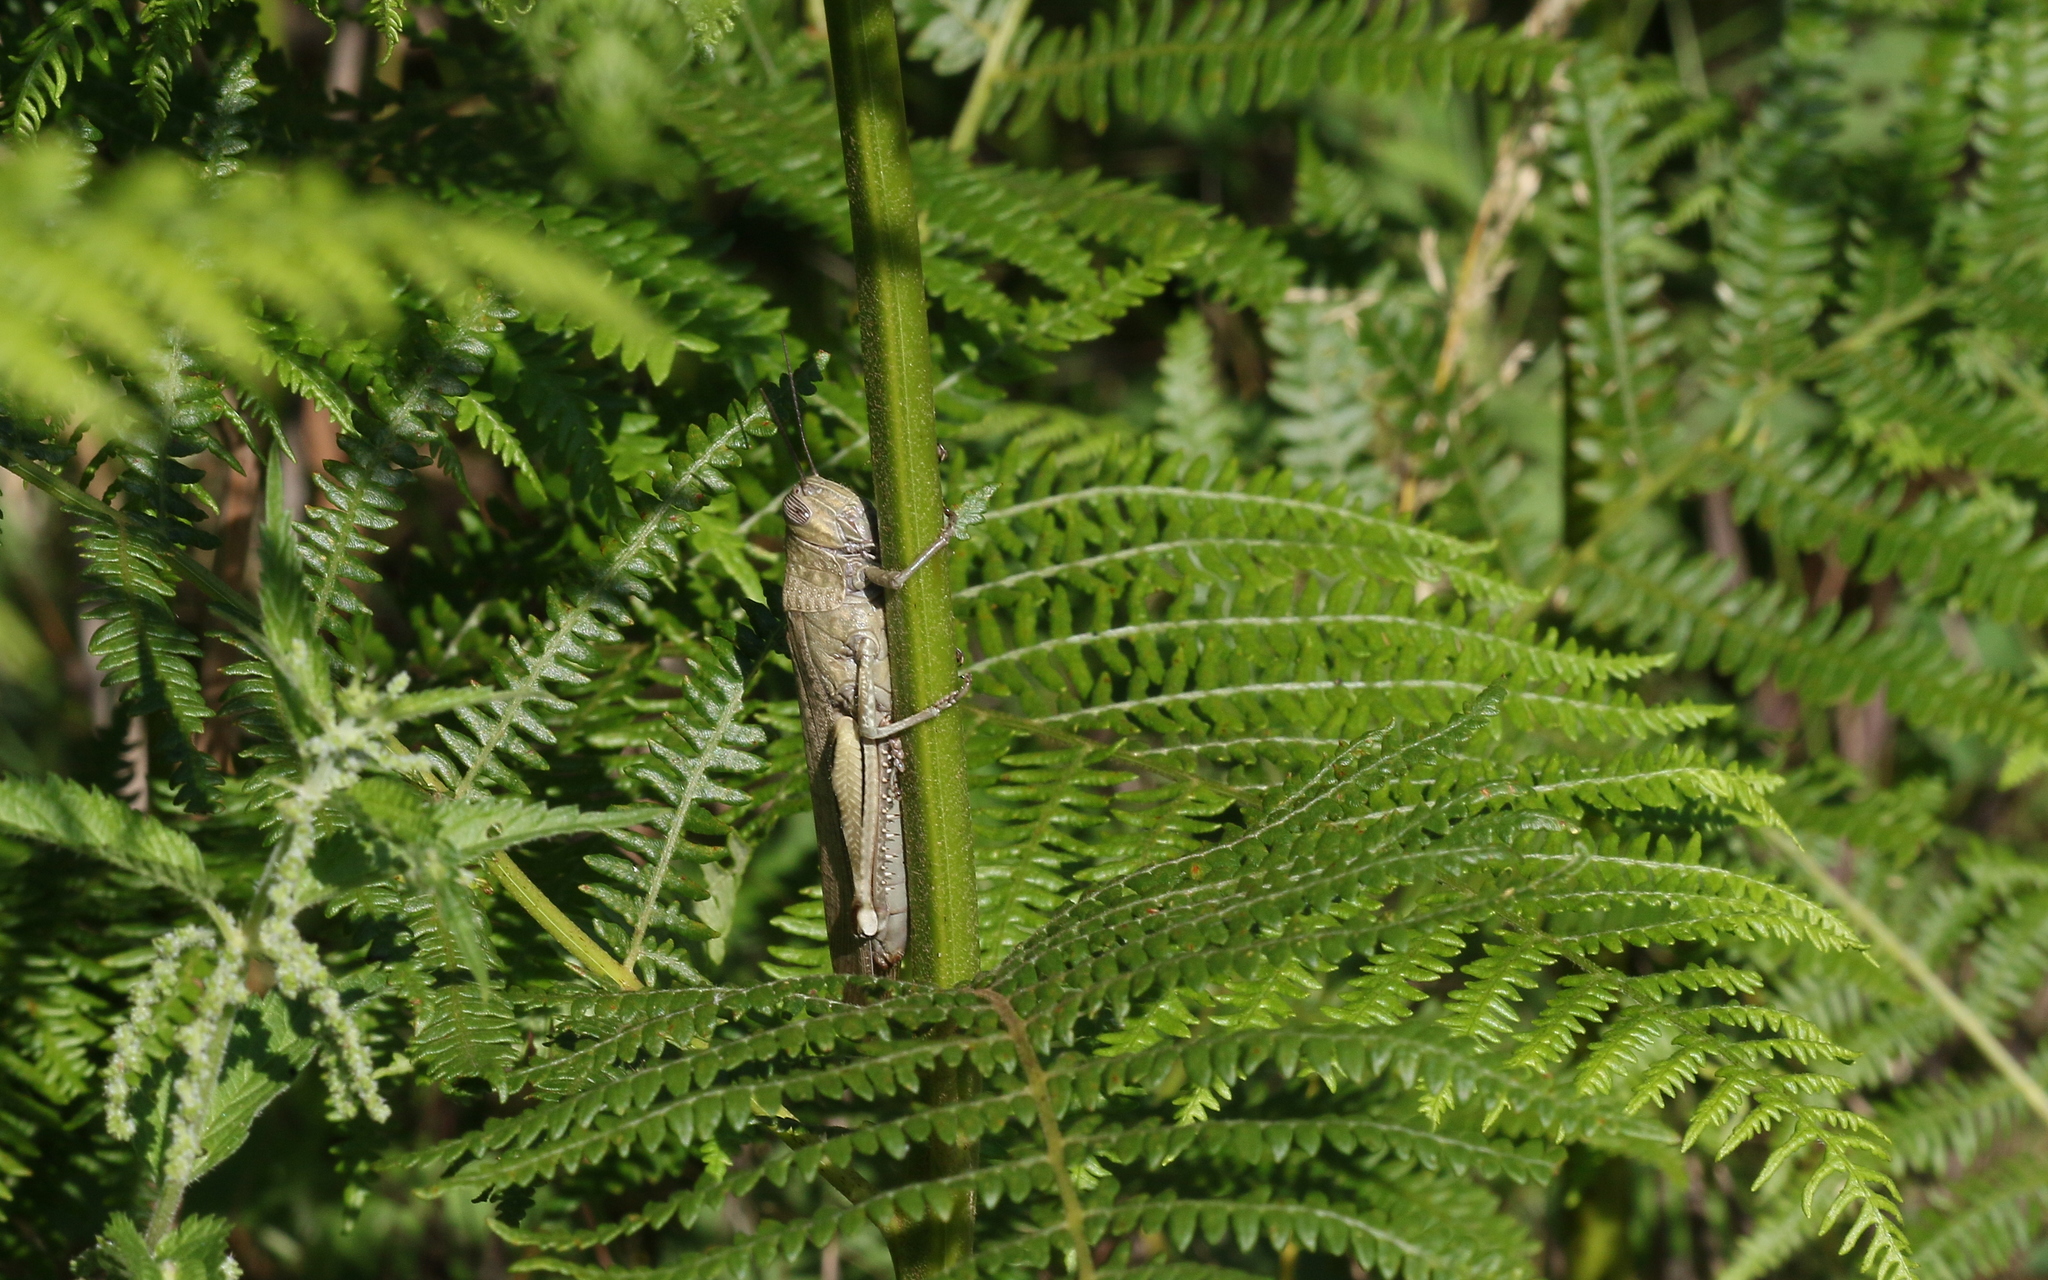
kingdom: Animalia
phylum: Arthropoda
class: Insecta
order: Orthoptera
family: Acrididae
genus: Anacridium
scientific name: Anacridium aegyptium
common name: Egyptian grasshopper
